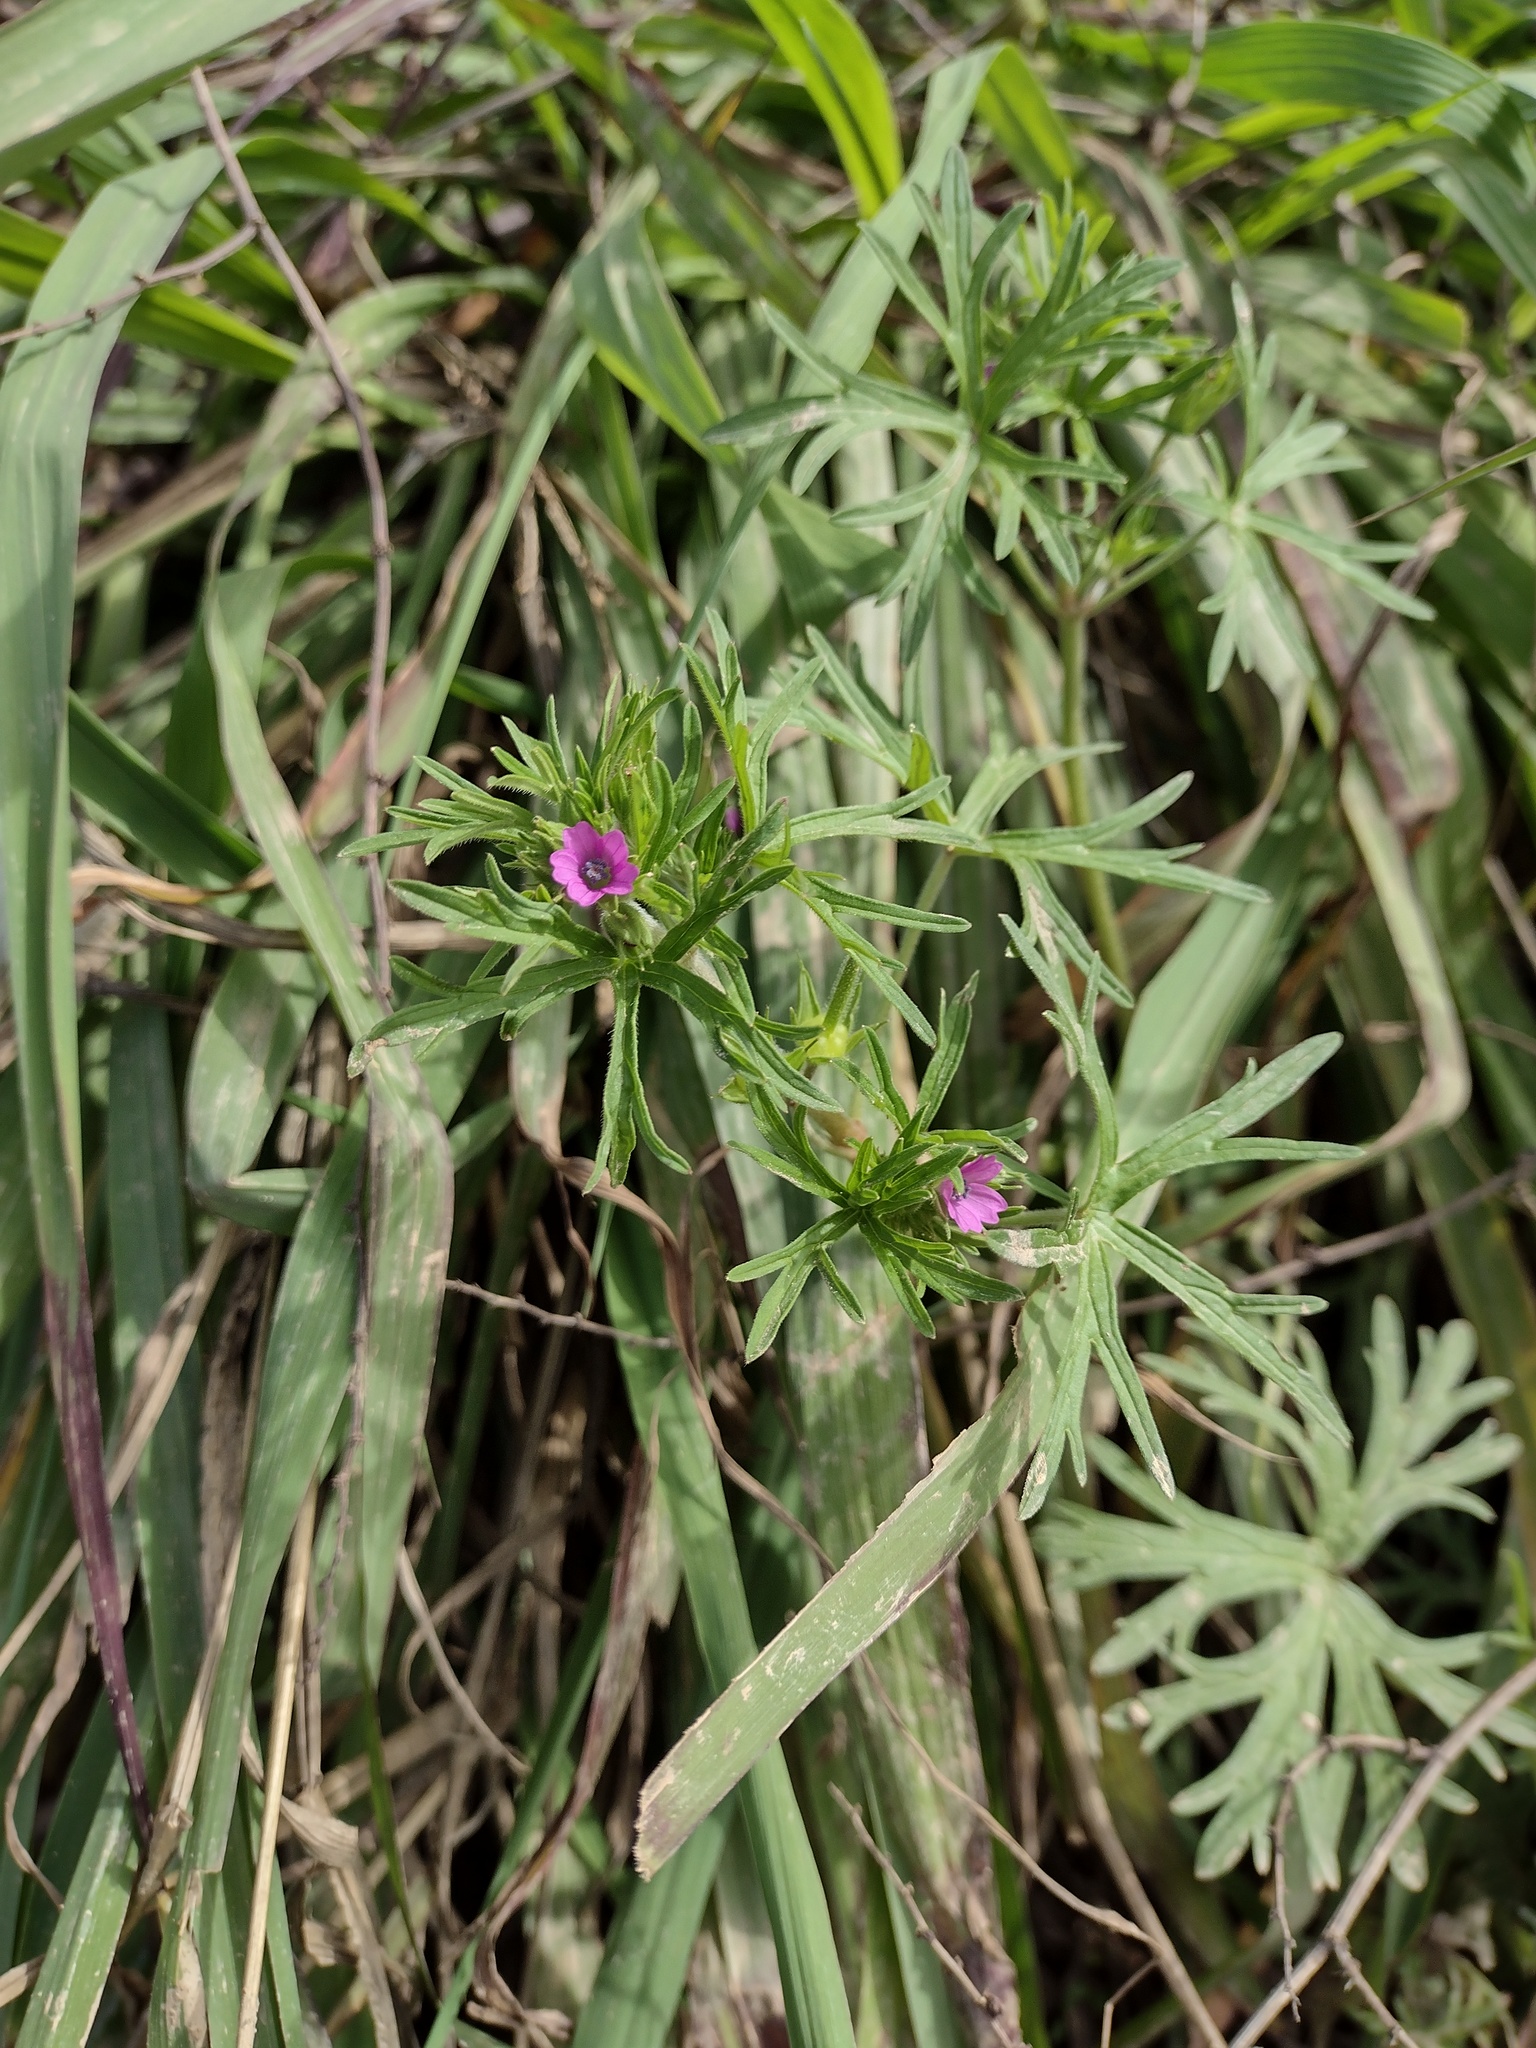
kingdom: Plantae
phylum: Tracheophyta
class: Magnoliopsida
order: Geraniales
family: Geraniaceae
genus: Geranium
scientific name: Geranium dissectum
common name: Cut-leaved crane's-bill
